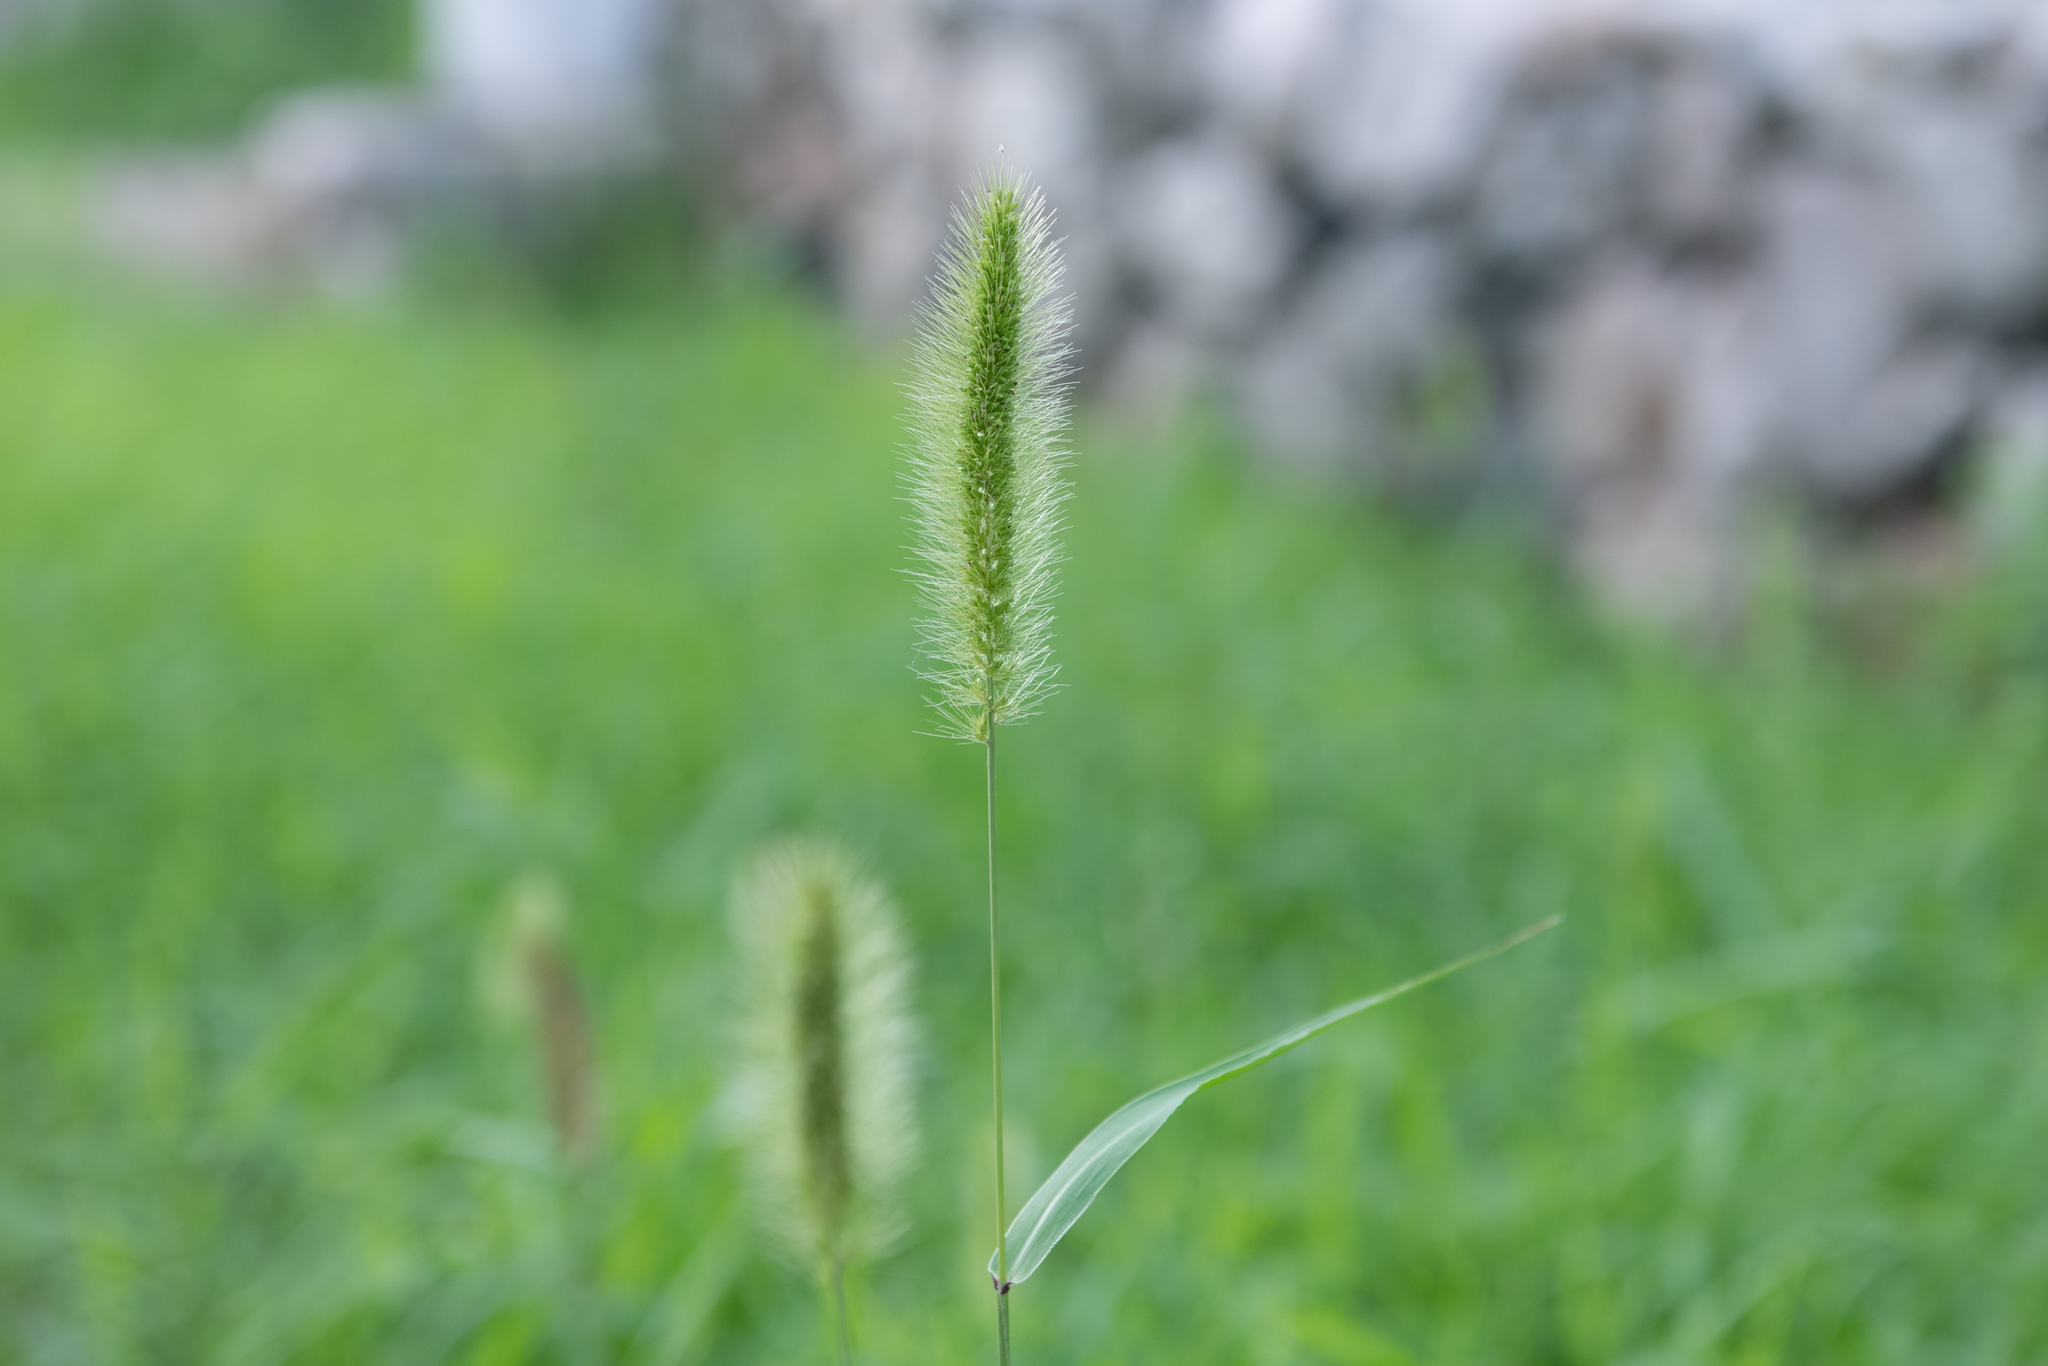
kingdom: Plantae
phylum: Tracheophyta
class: Liliopsida
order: Poales
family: Poaceae
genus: Setaria
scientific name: Setaria viridis
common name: Green bristlegrass
